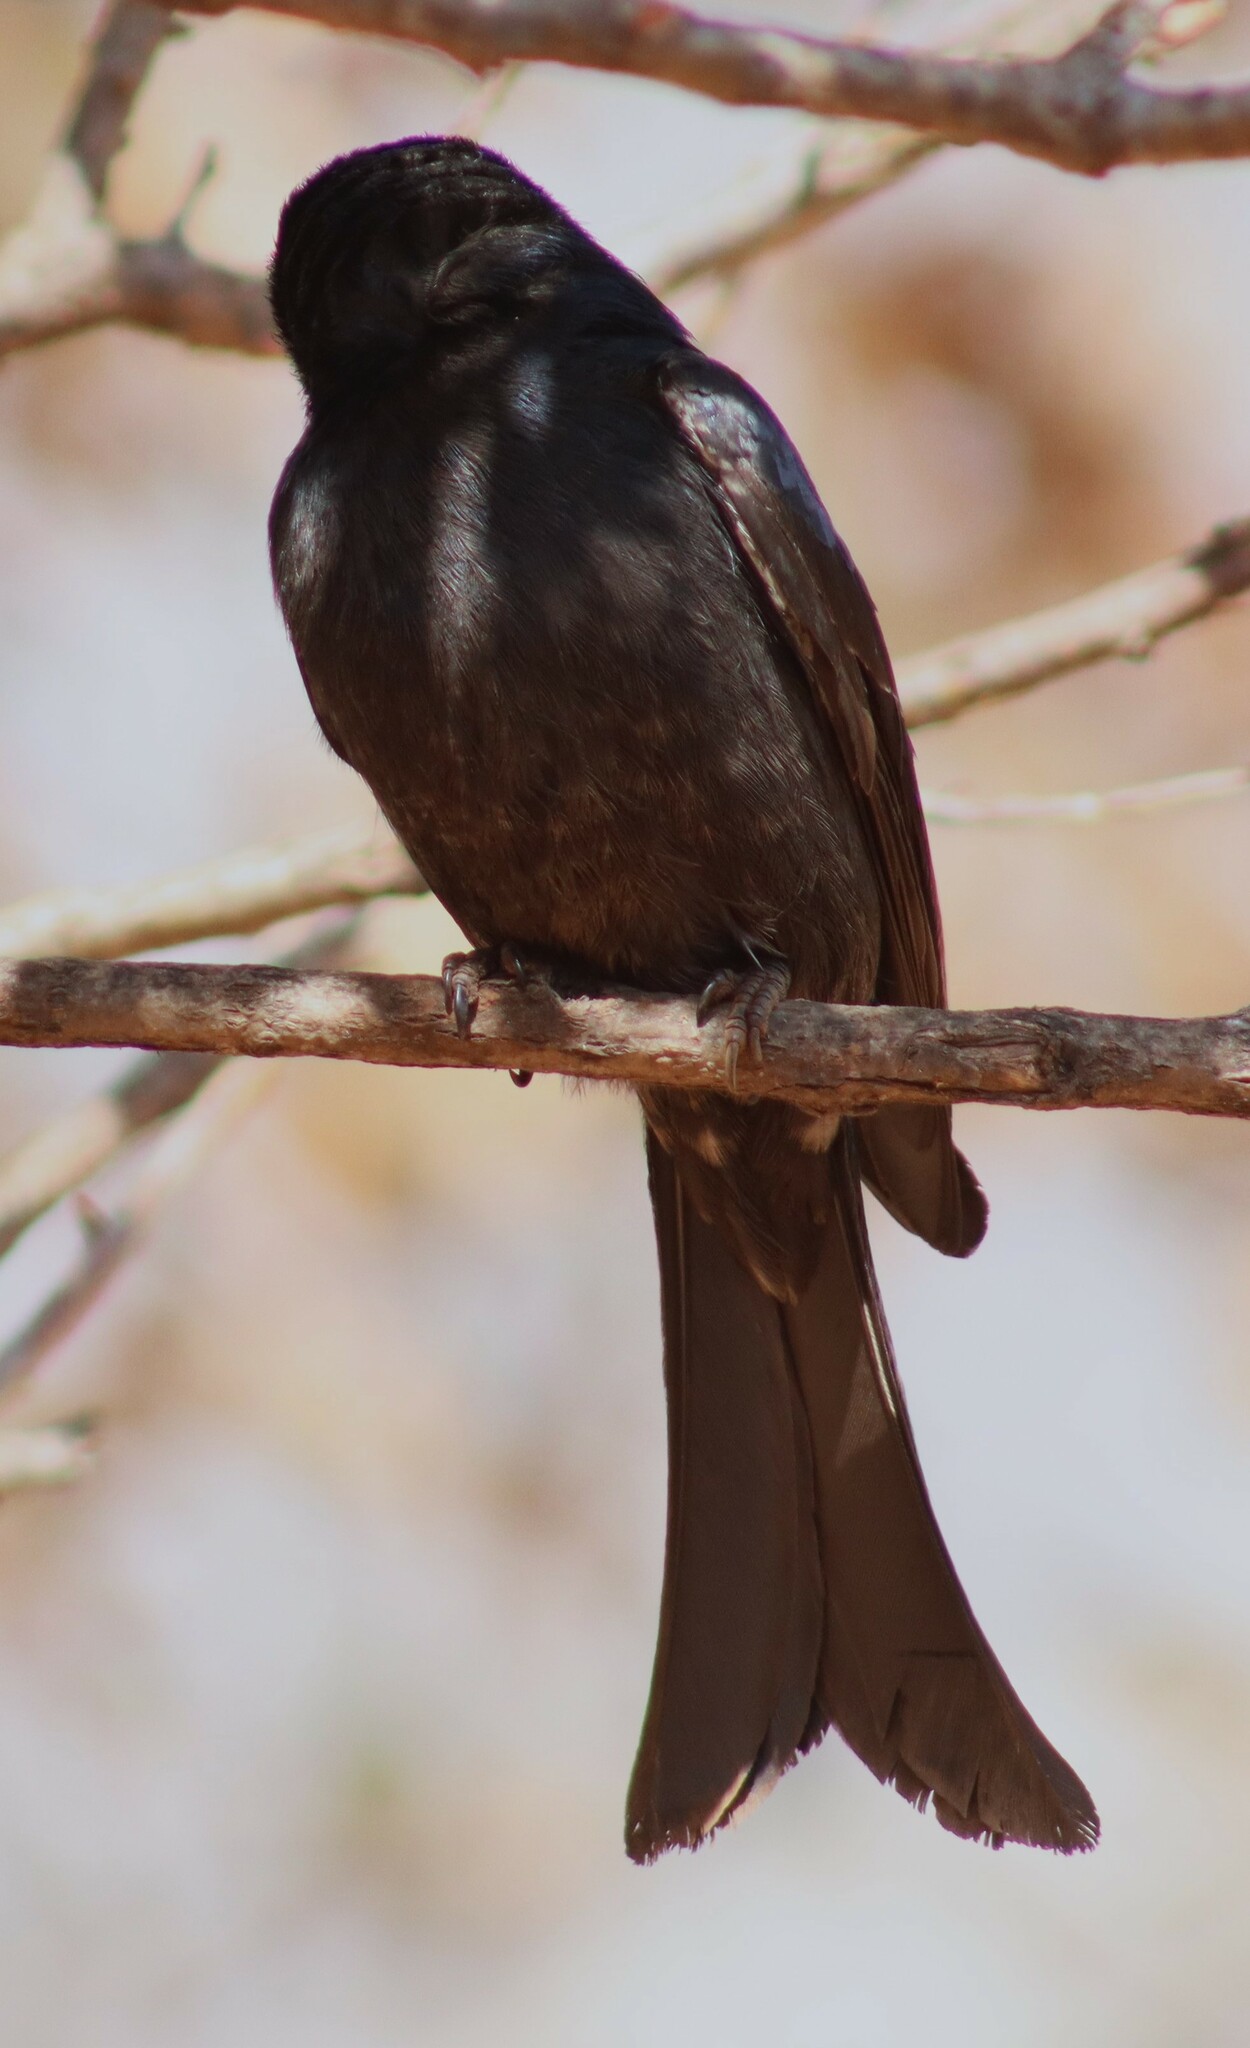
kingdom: Animalia
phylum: Chordata
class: Aves
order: Passeriformes
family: Dicruridae
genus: Dicrurus
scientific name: Dicrurus adsimilis
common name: Fork-tailed drongo
